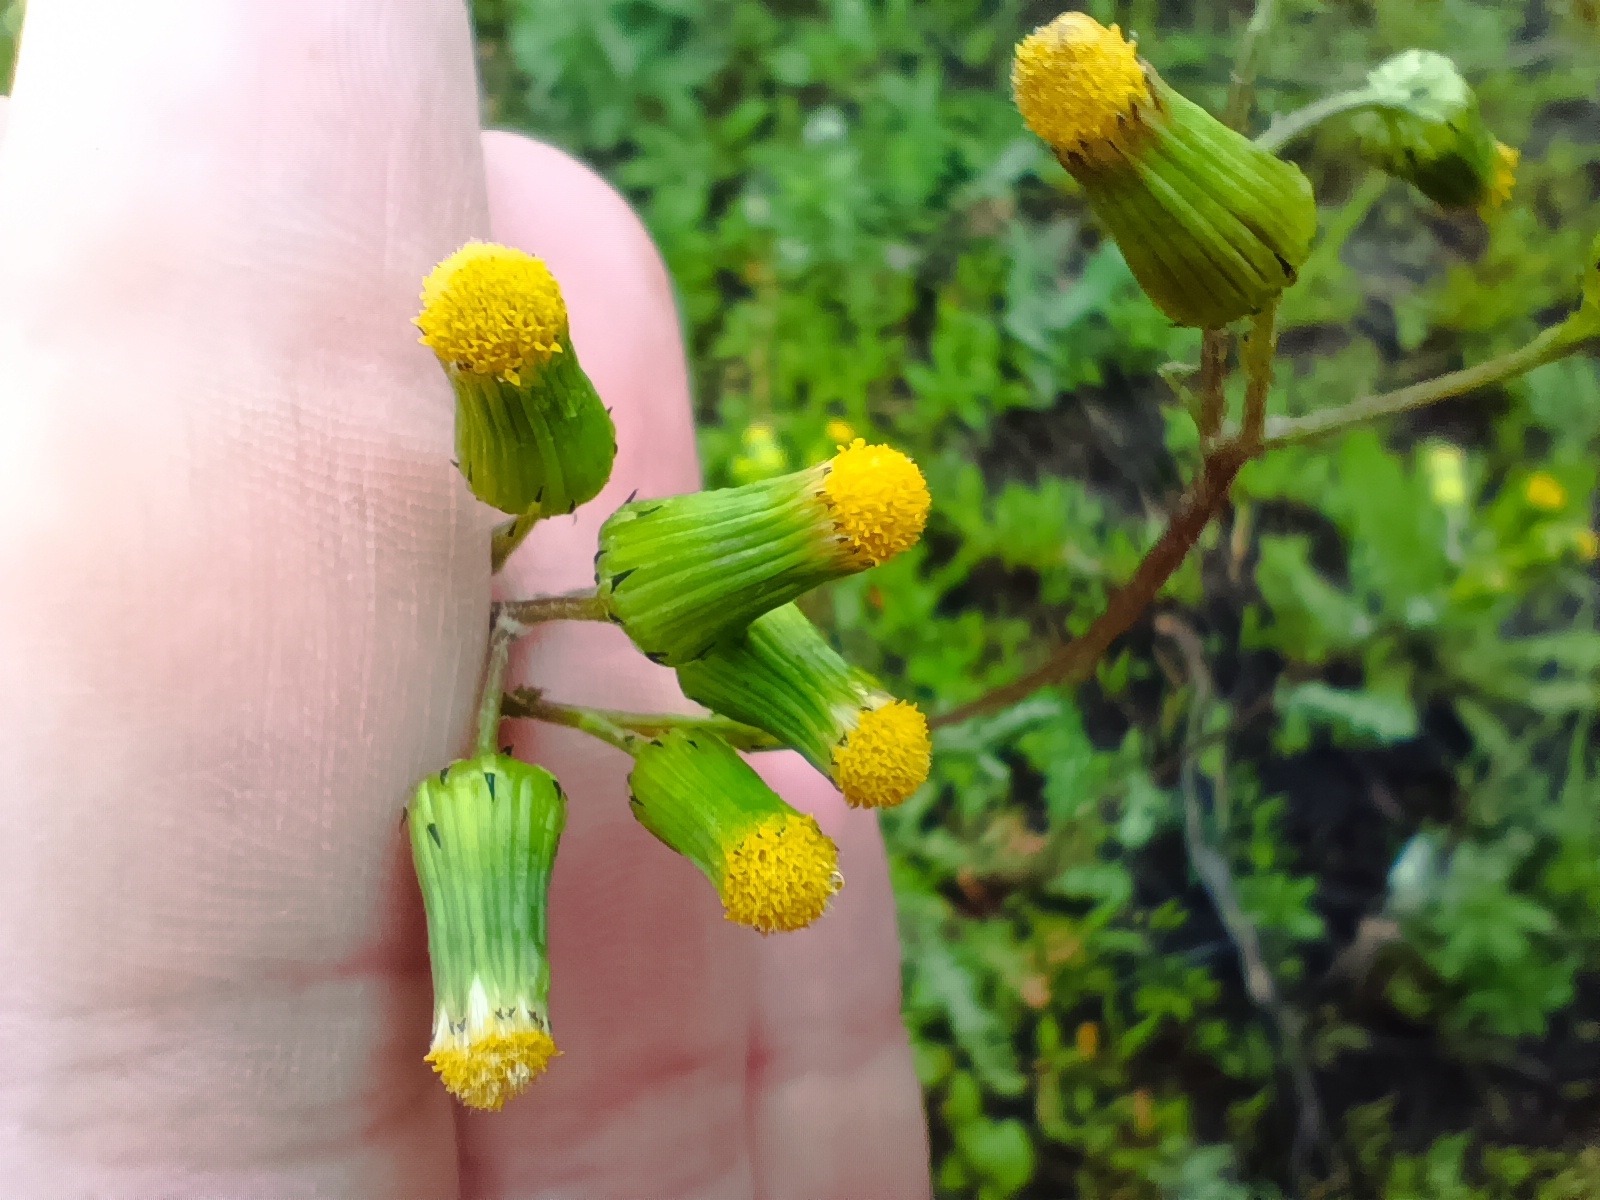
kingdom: Plantae
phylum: Tracheophyta
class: Magnoliopsida
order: Asterales
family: Asteraceae
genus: Senecio
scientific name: Senecio vulgaris
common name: Old-man-in-the-spring
